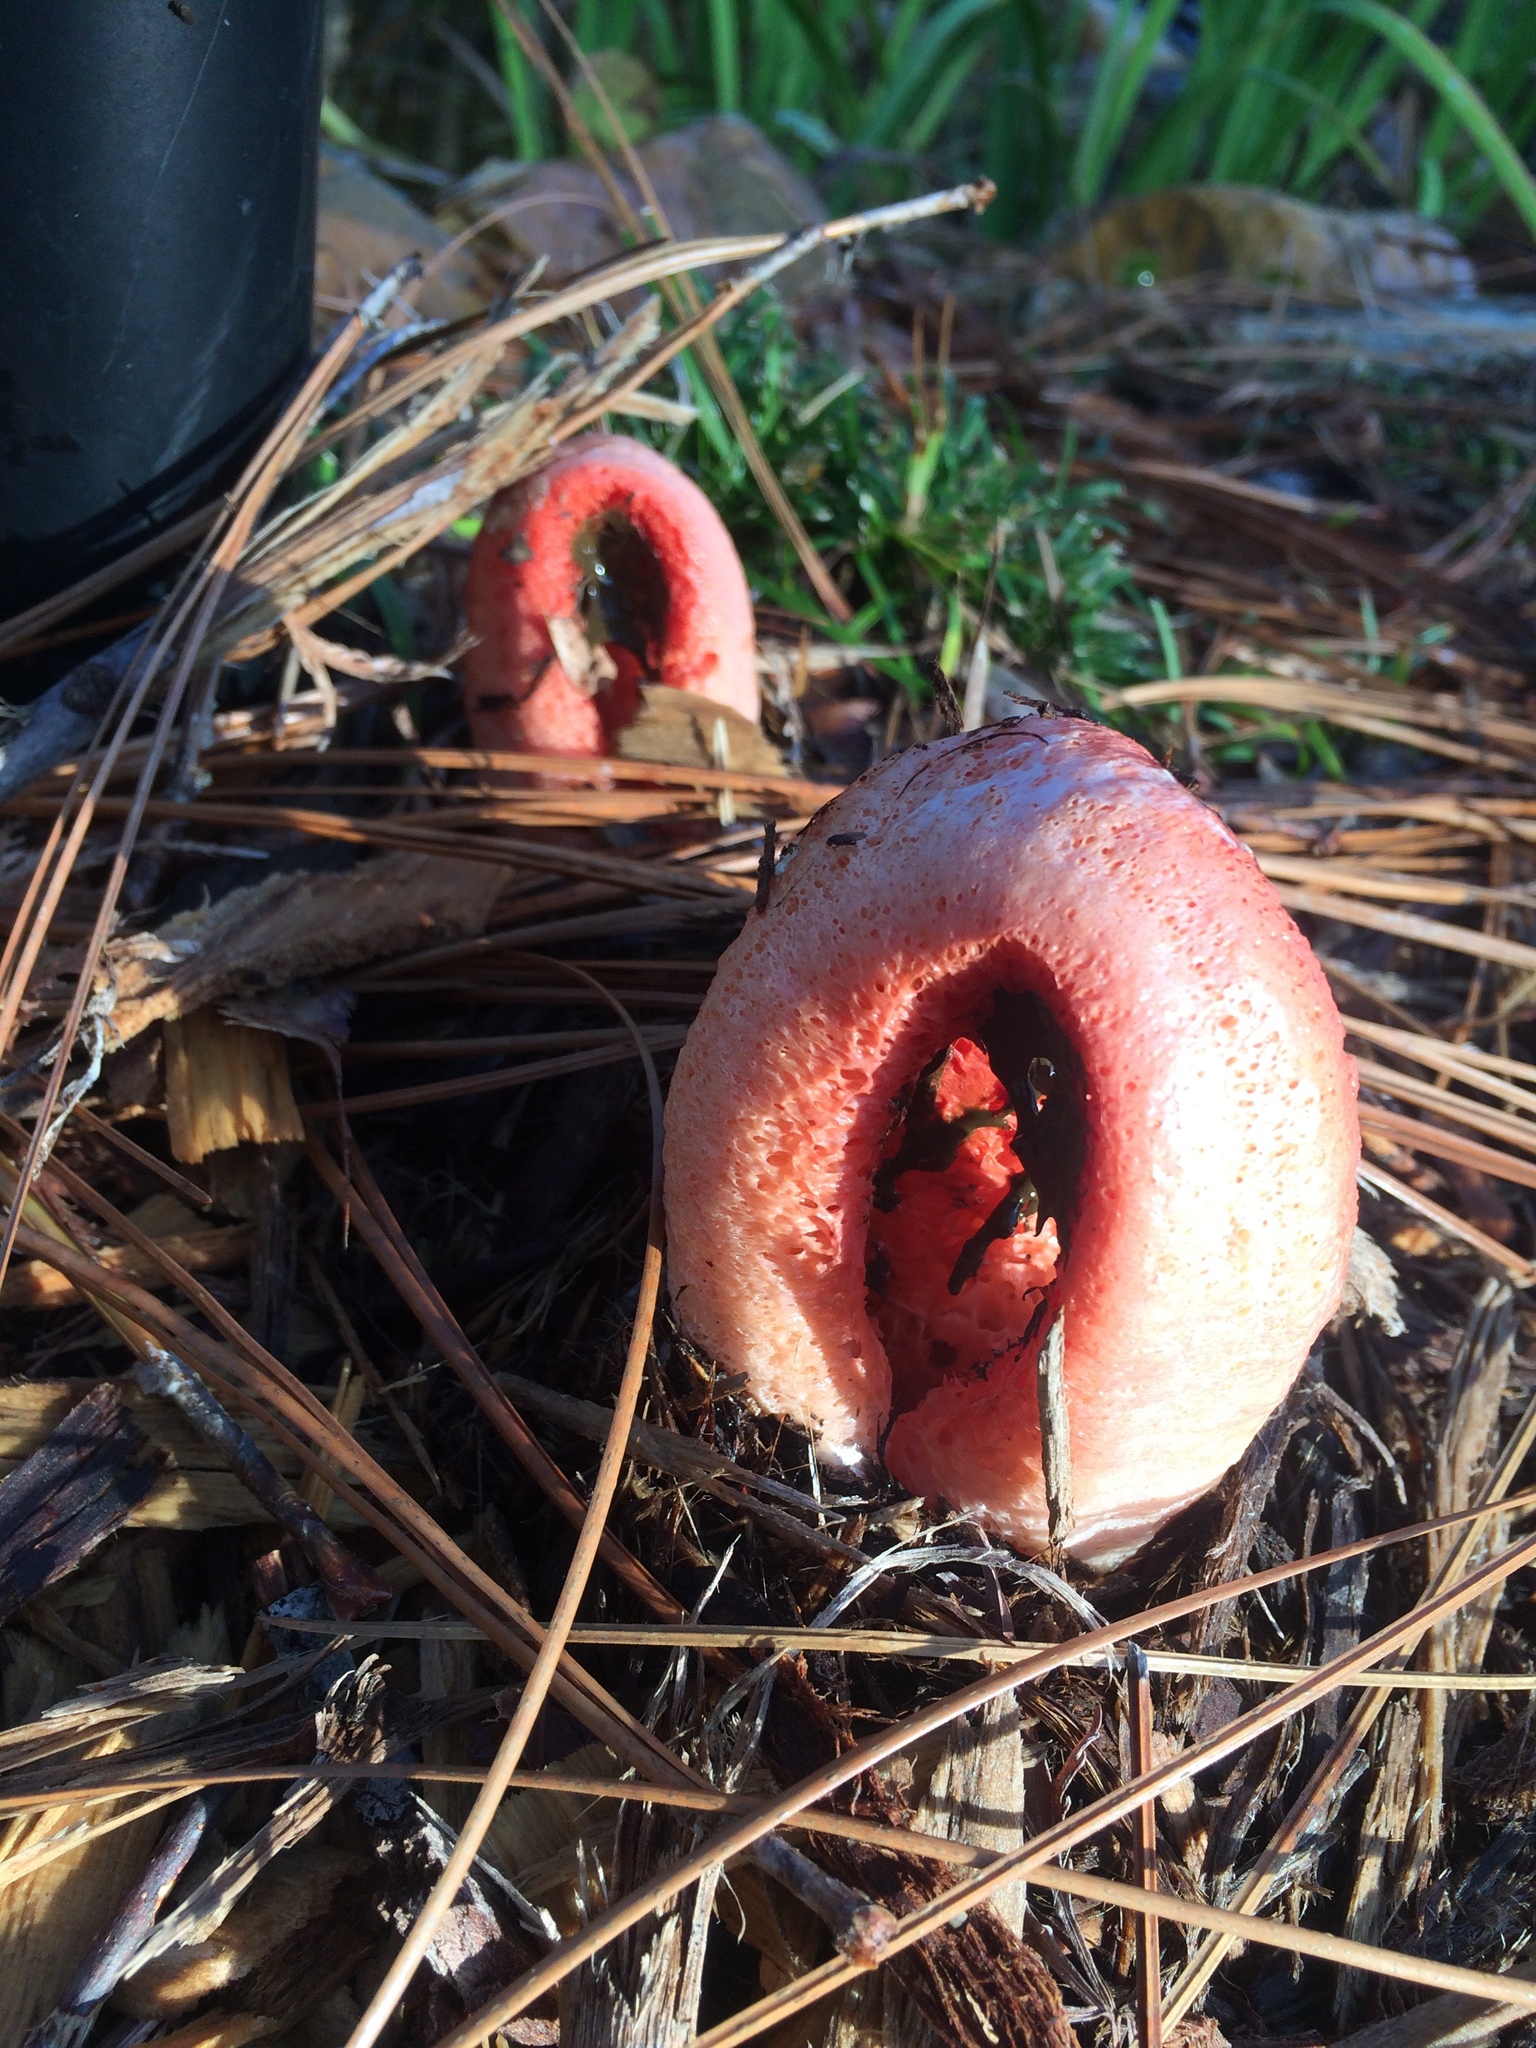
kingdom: Fungi
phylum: Basidiomycota
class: Agaricomycetes
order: Phallales
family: Phallaceae
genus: Clathrus
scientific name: Clathrus columnatus
